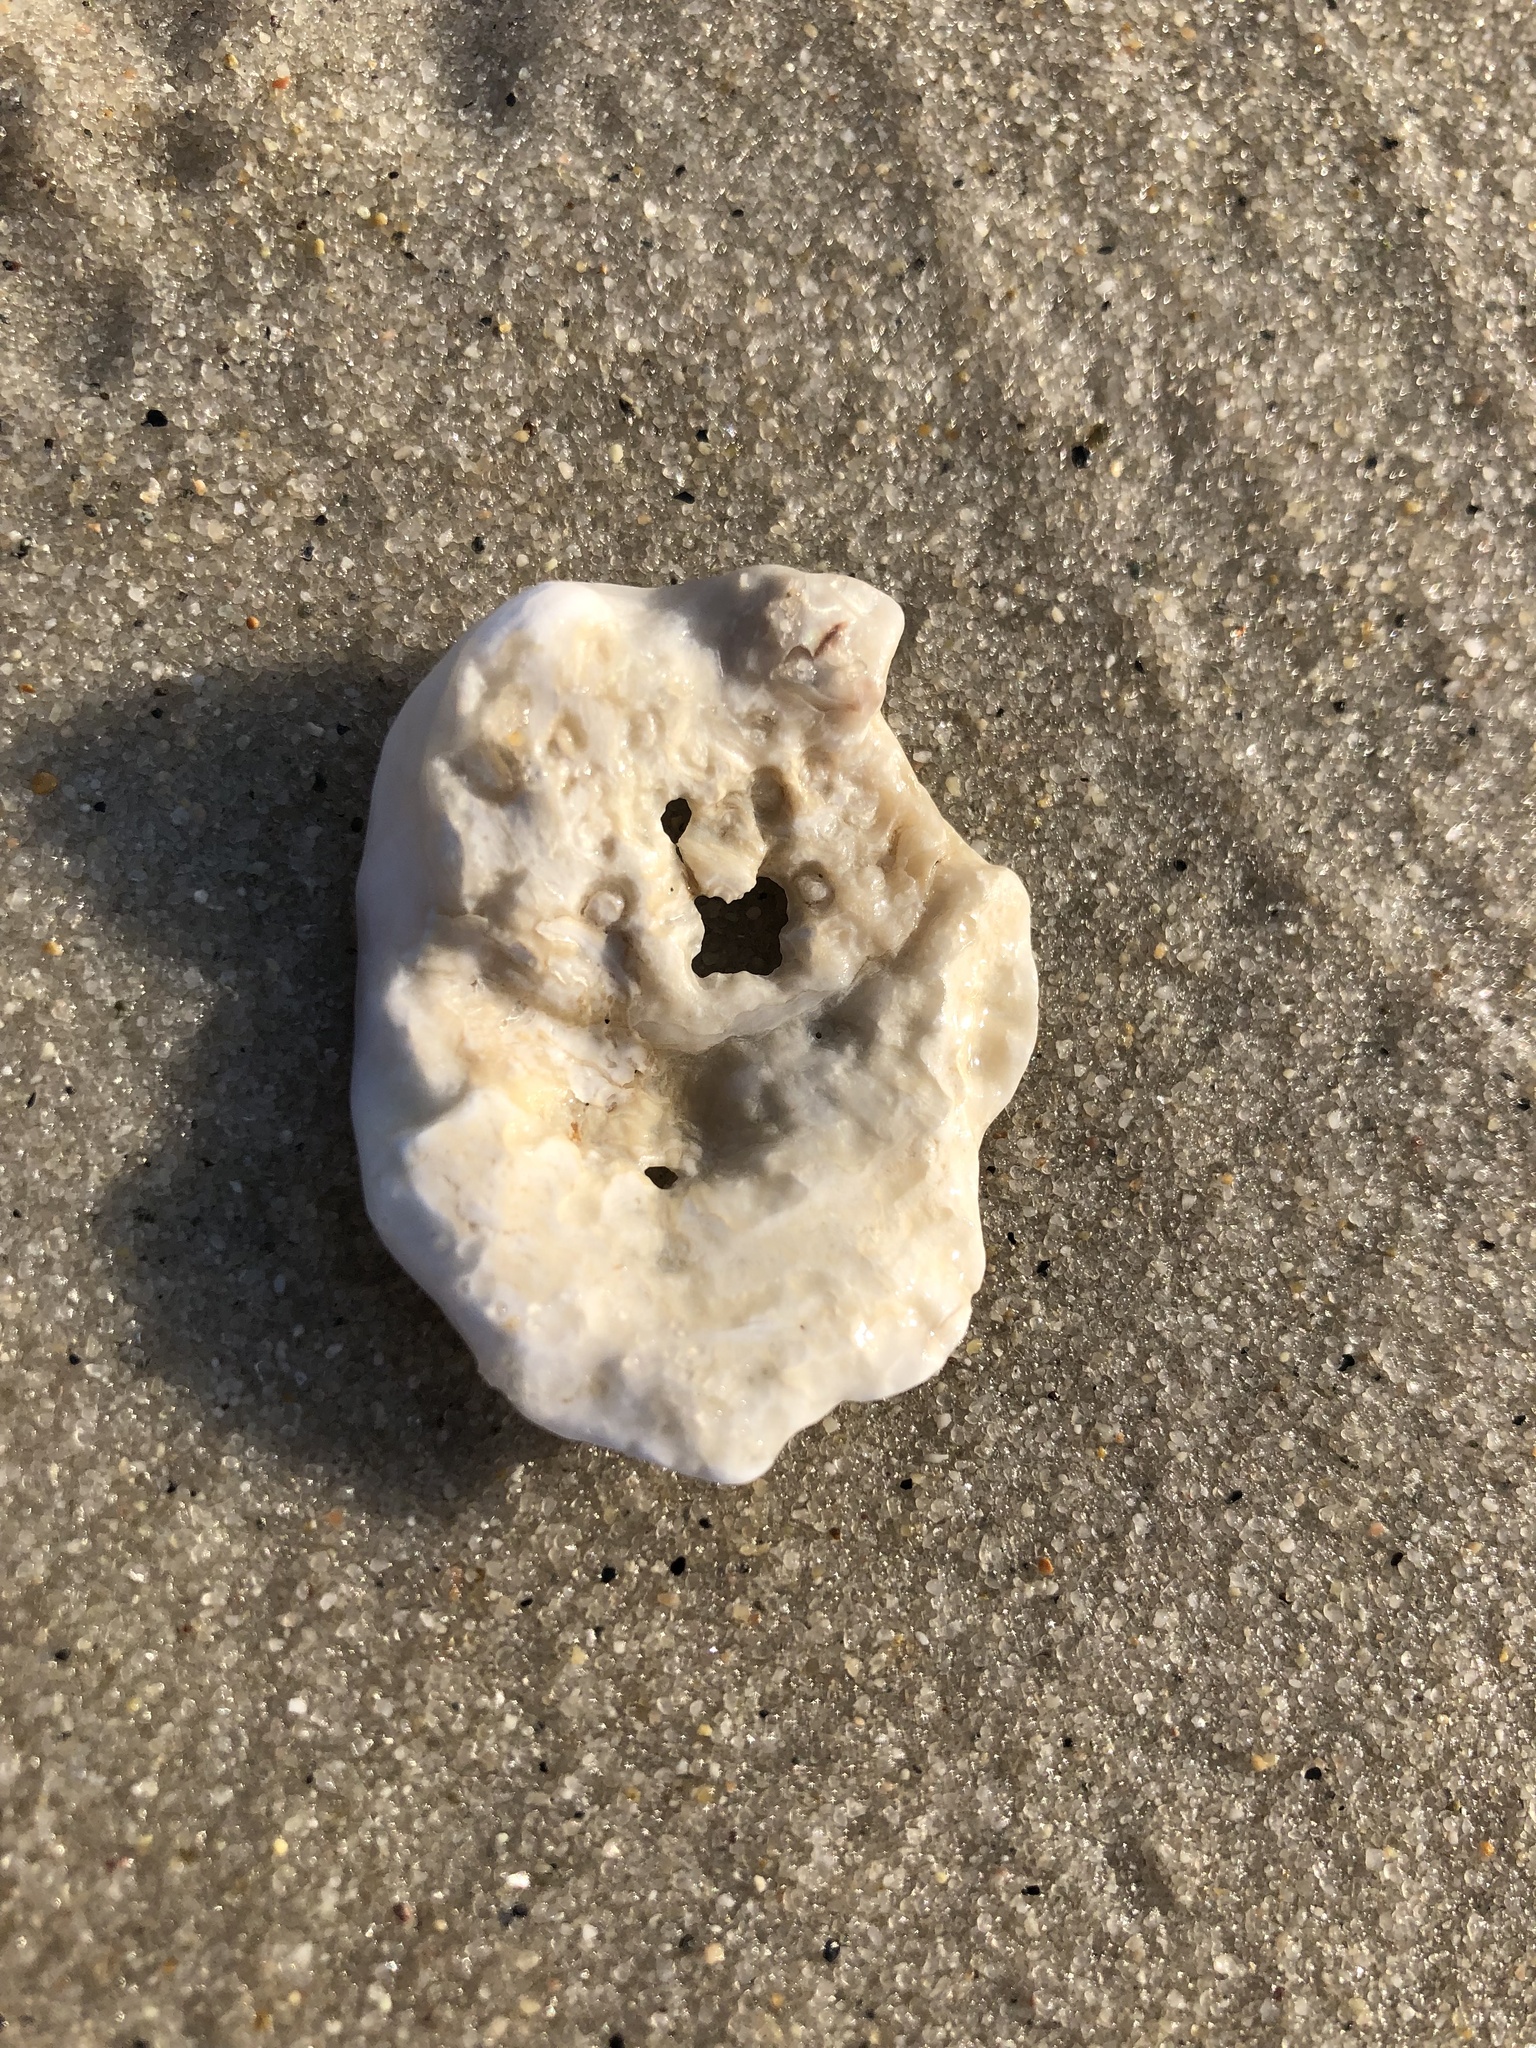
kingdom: Animalia
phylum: Mollusca
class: Bivalvia
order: Ostreida
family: Ostreidae
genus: Crassostrea
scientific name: Crassostrea virginica
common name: American oyster
